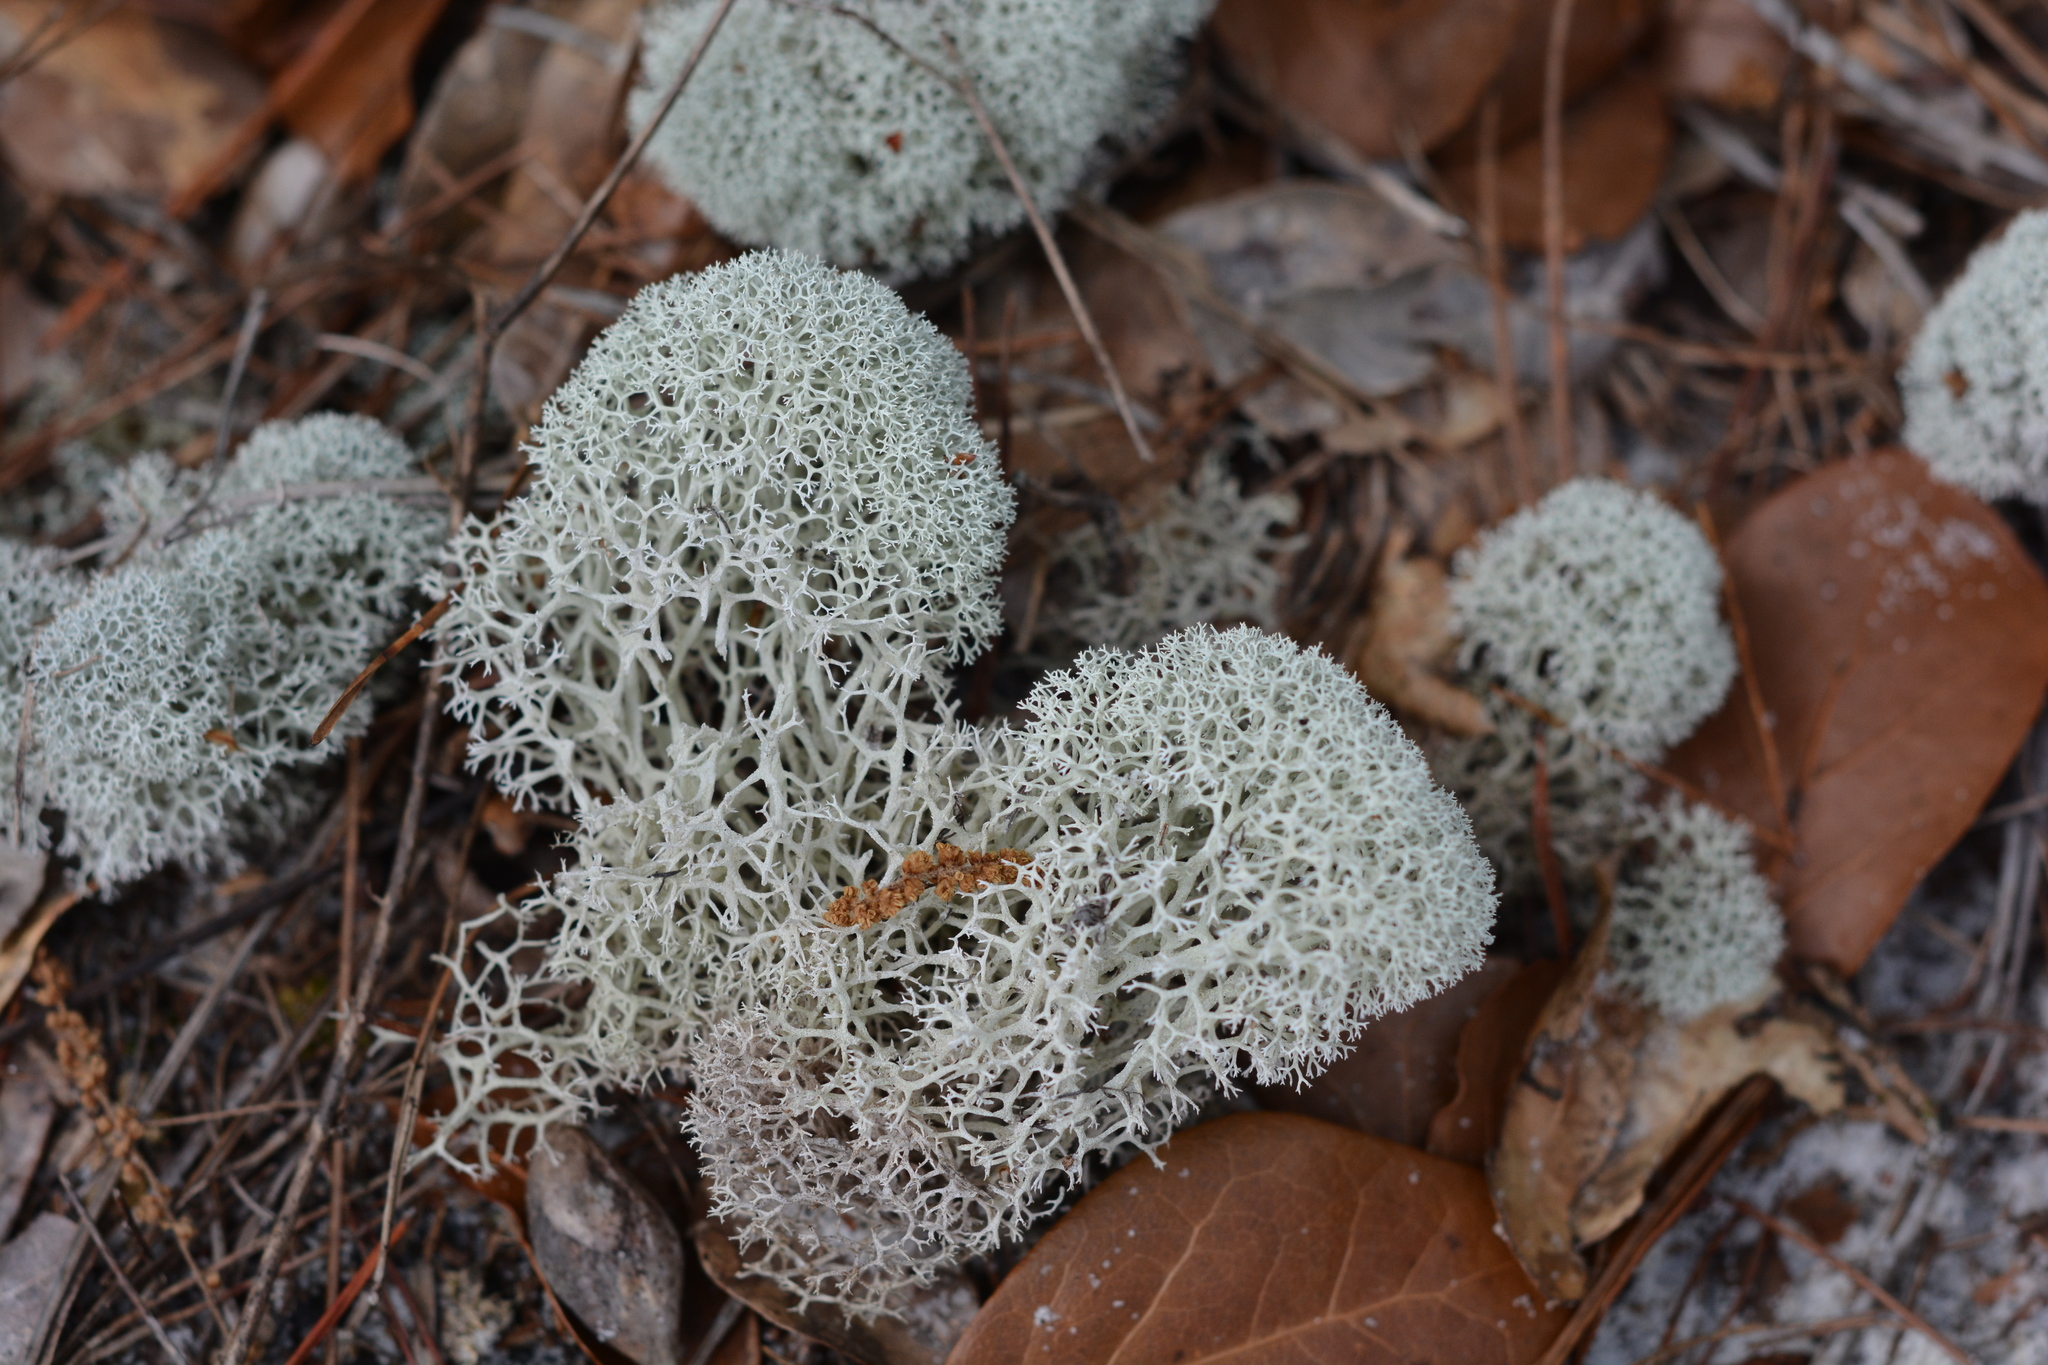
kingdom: Fungi
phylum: Ascomycota
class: Lecanoromycetes
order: Lecanorales
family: Cladoniaceae
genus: Cladonia
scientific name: Cladonia evansii
